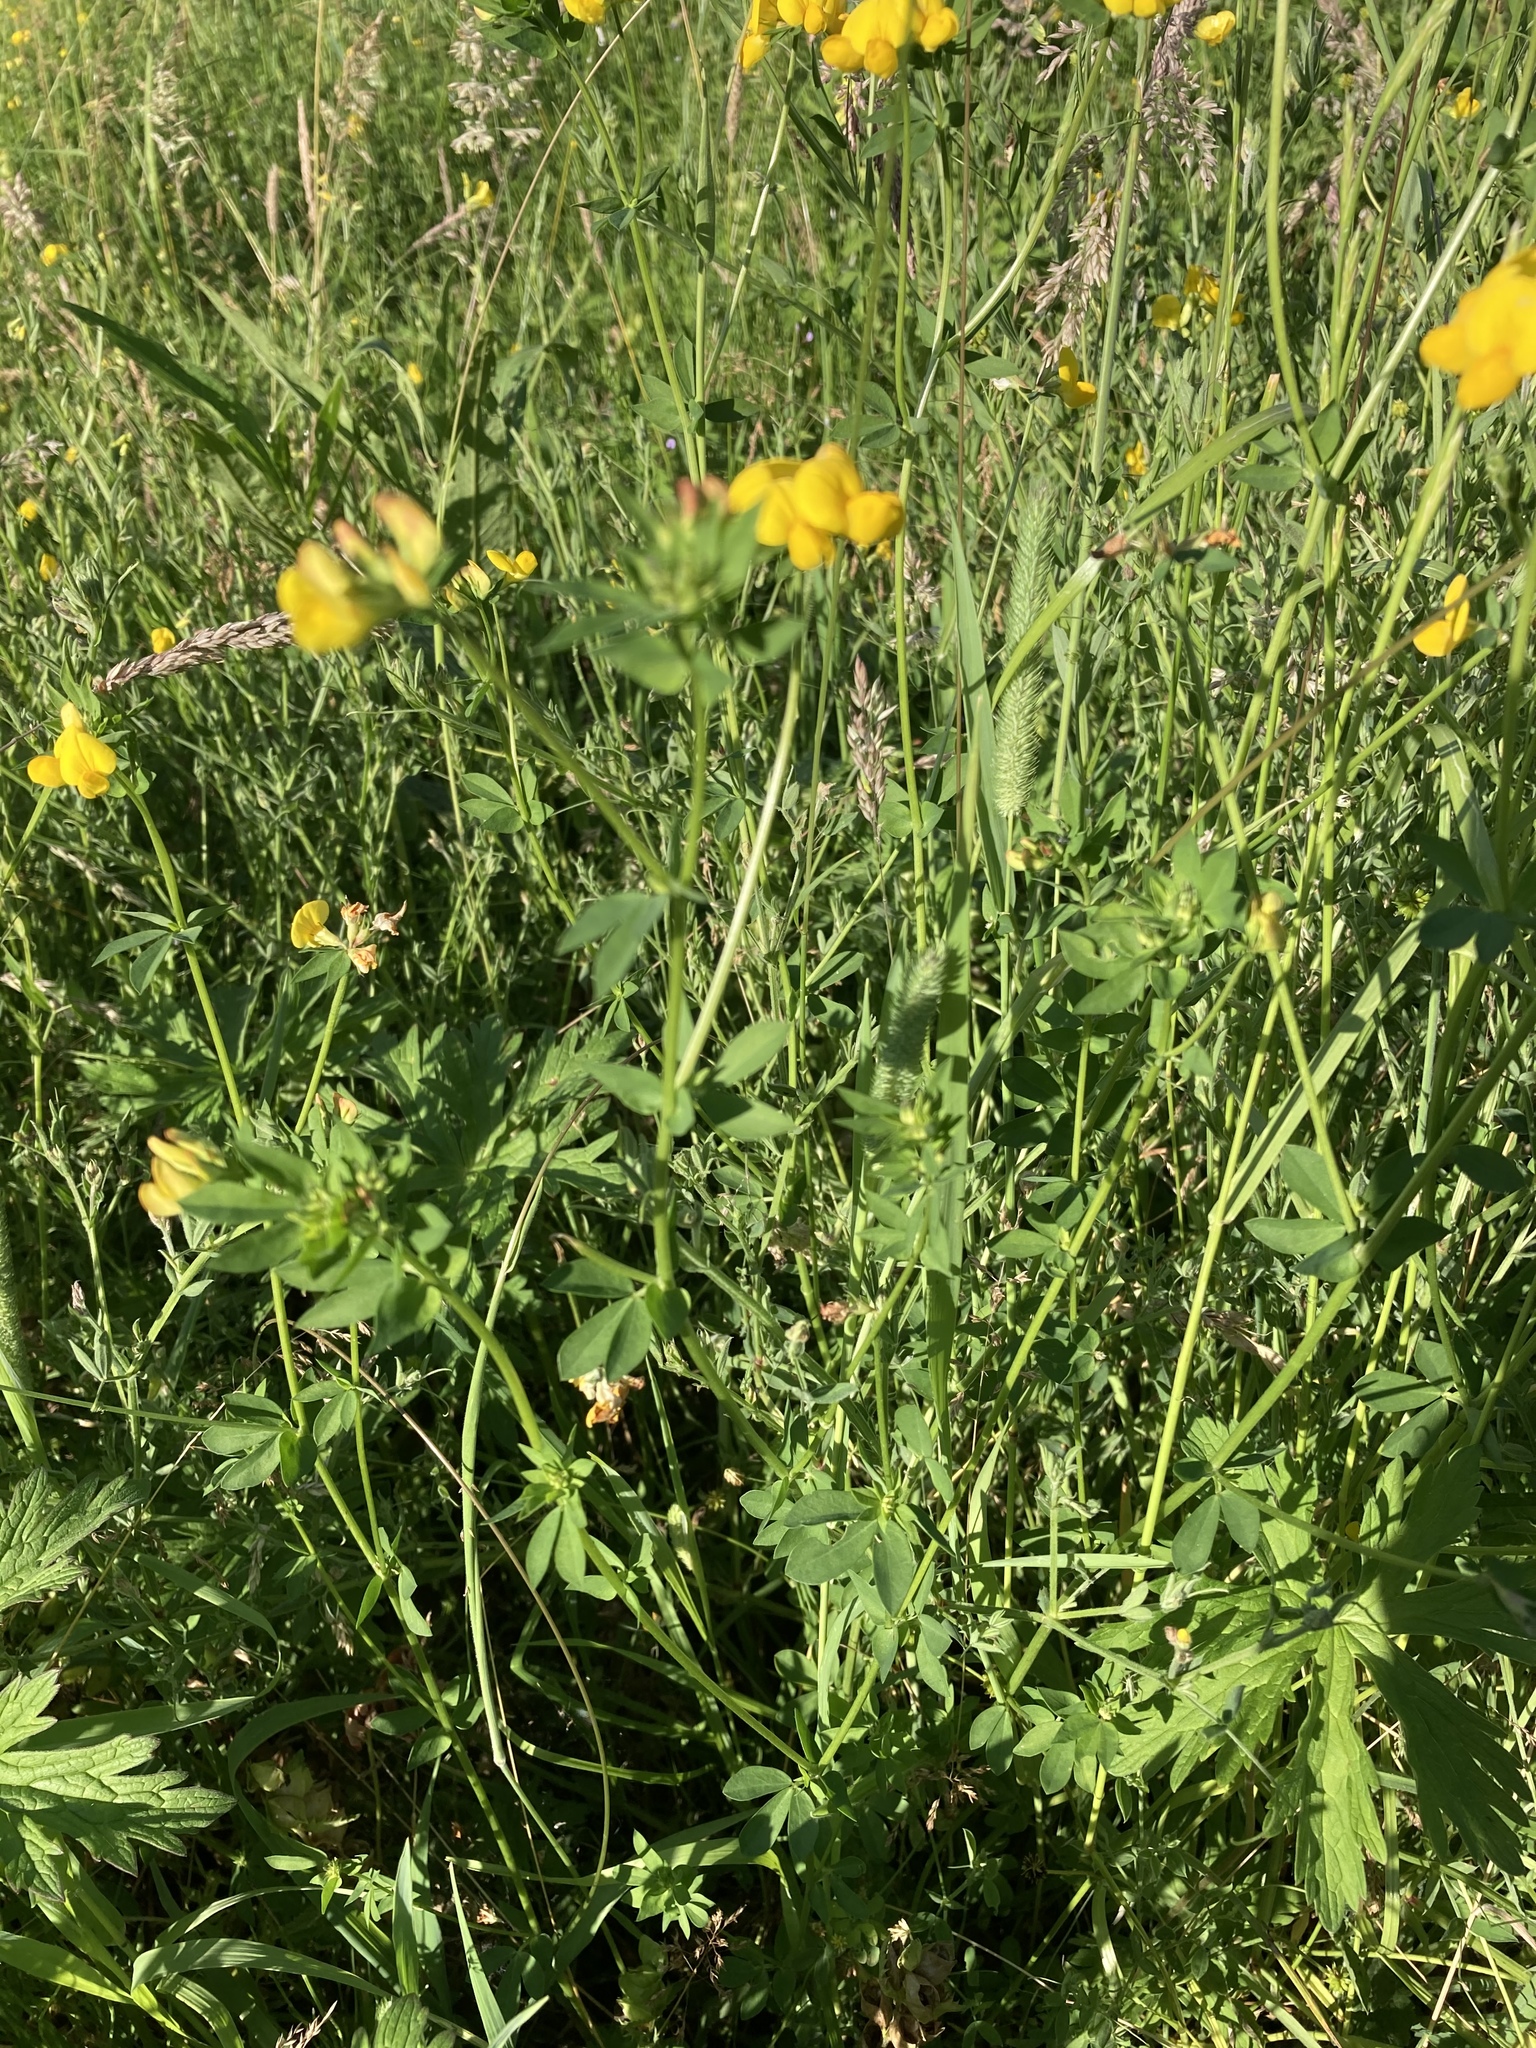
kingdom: Plantae
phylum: Tracheophyta
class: Magnoliopsida
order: Fabales
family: Fabaceae
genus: Lotus
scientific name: Lotus corniculatus
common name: Common bird's-foot-trefoil
